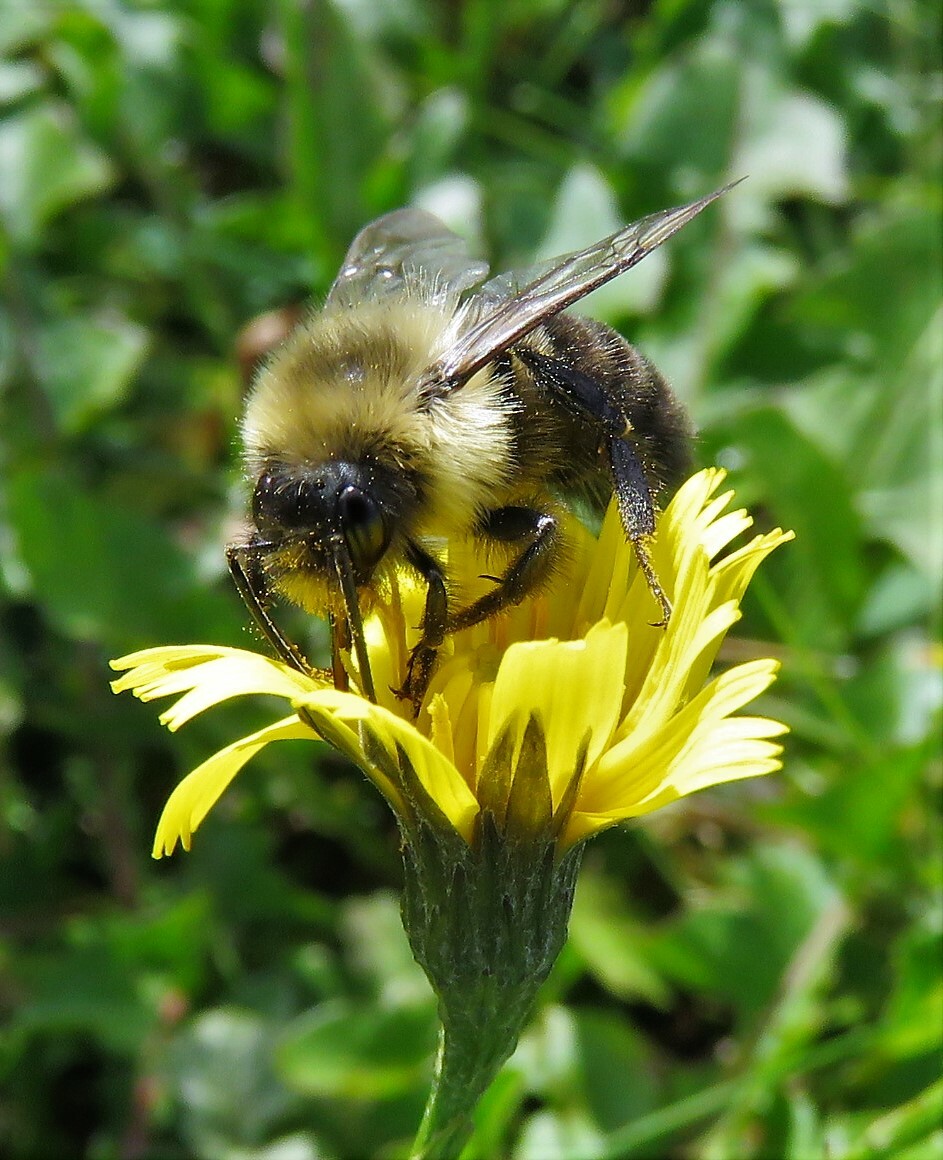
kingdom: Animalia
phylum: Arthropoda
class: Insecta
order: Hymenoptera
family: Apidae
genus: Bombus
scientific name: Bombus impatiens
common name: Common eastern bumble bee
